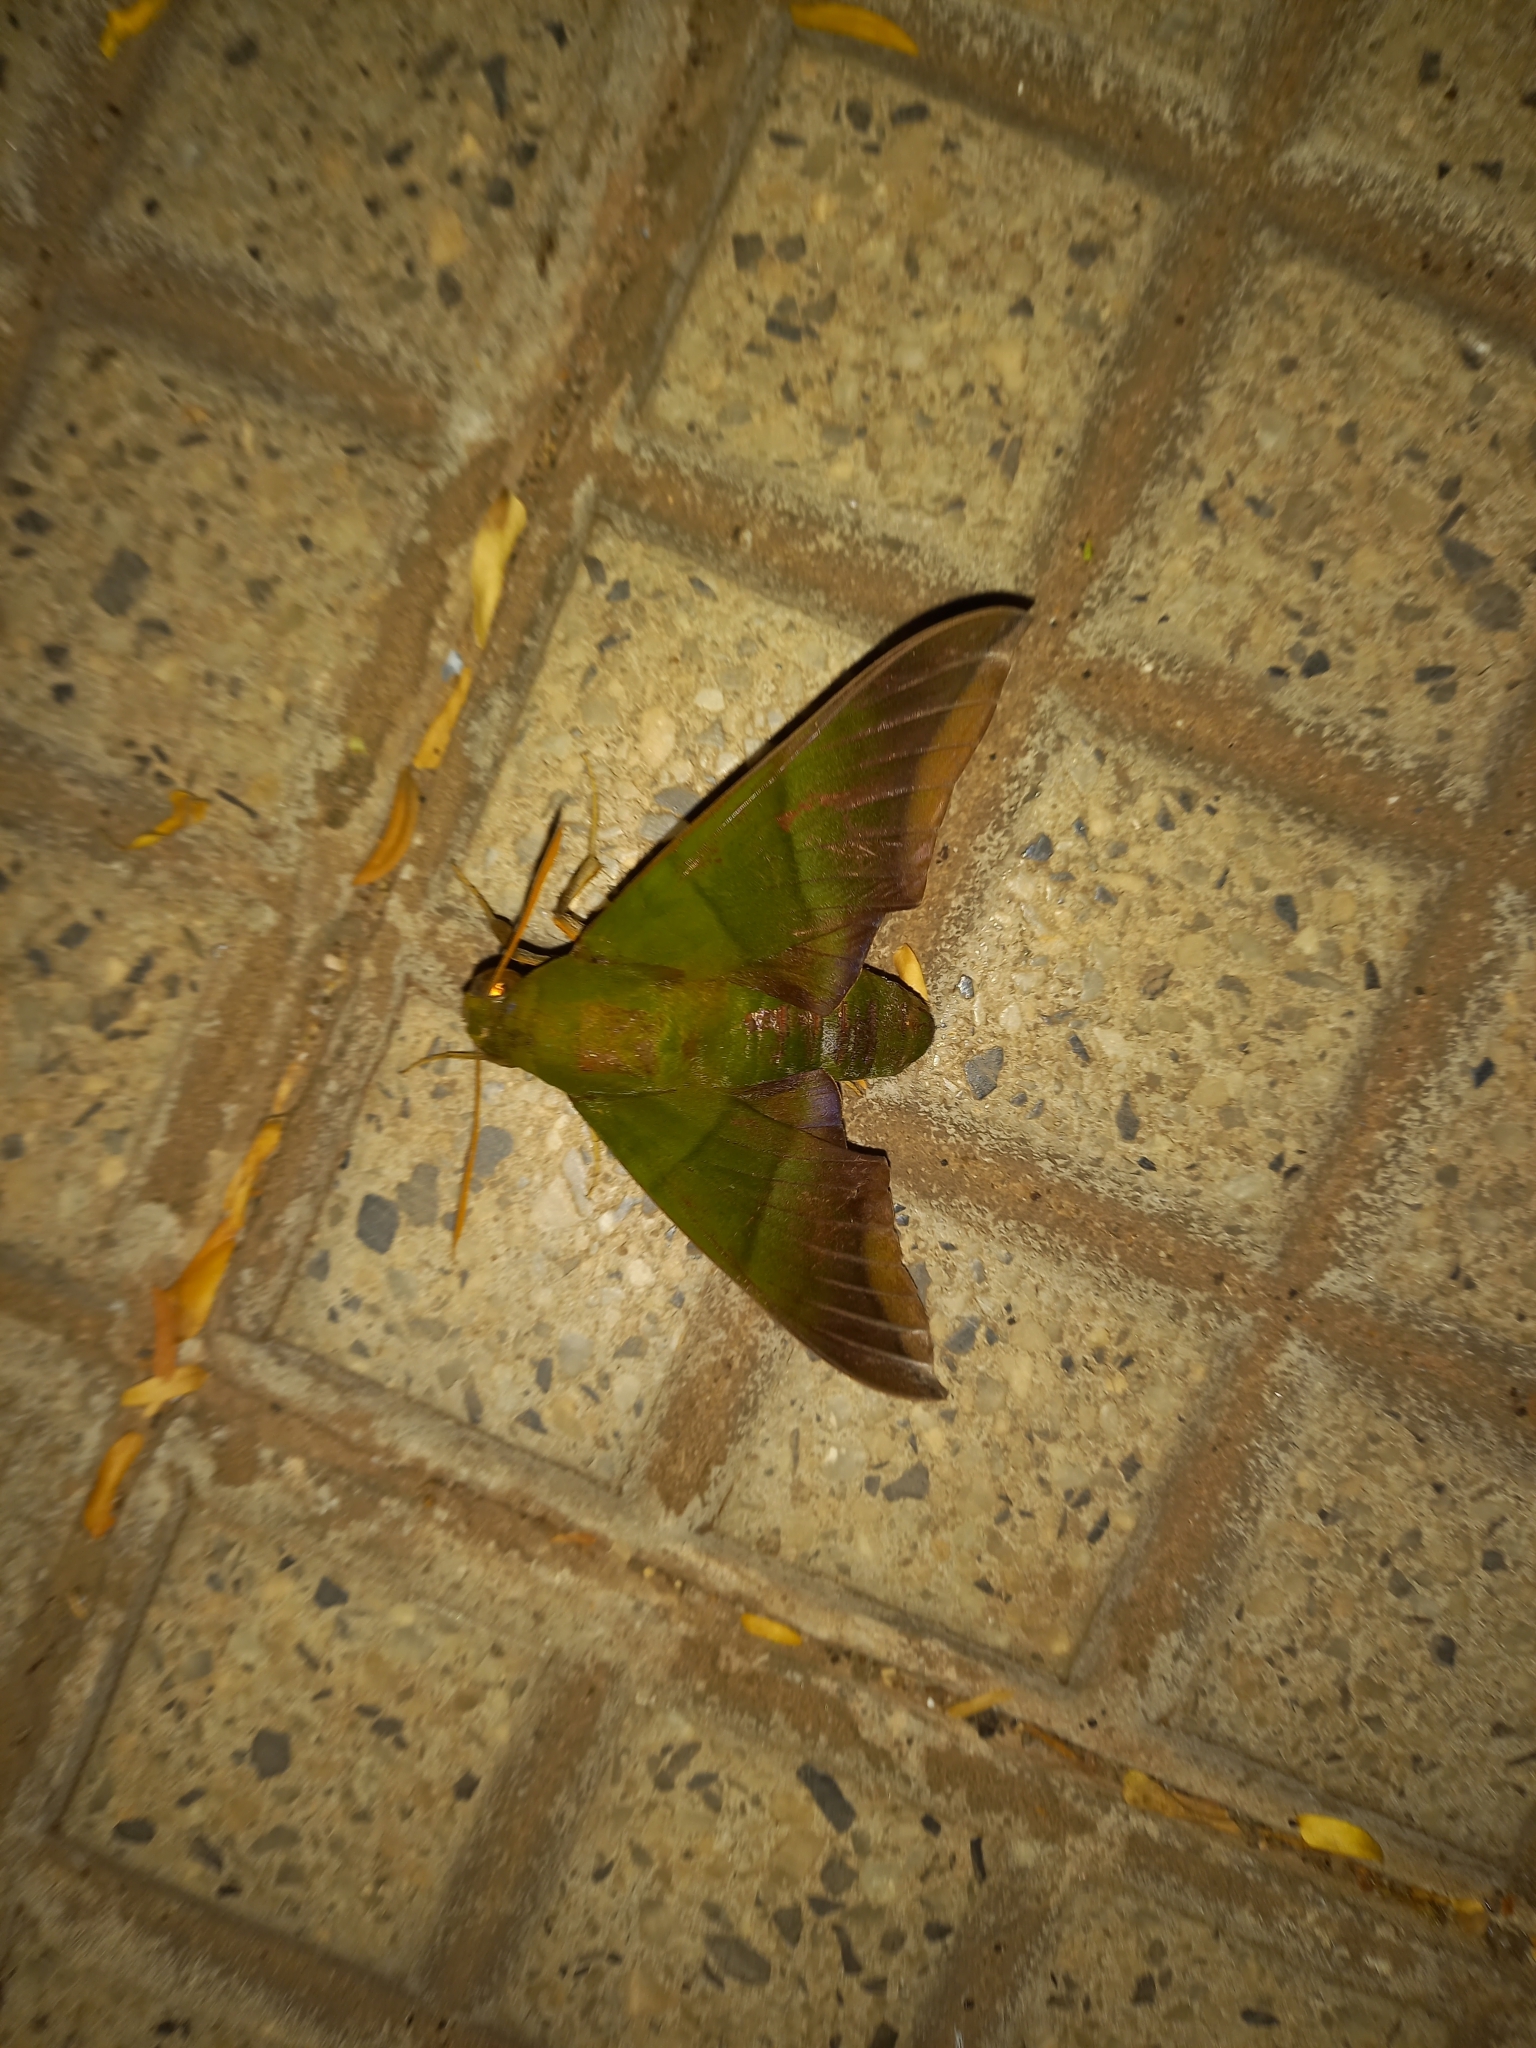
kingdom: Animalia
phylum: Arthropoda
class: Insecta
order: Lepidoptera
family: Sphingidae
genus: Oryba
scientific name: Oryba achemenides
